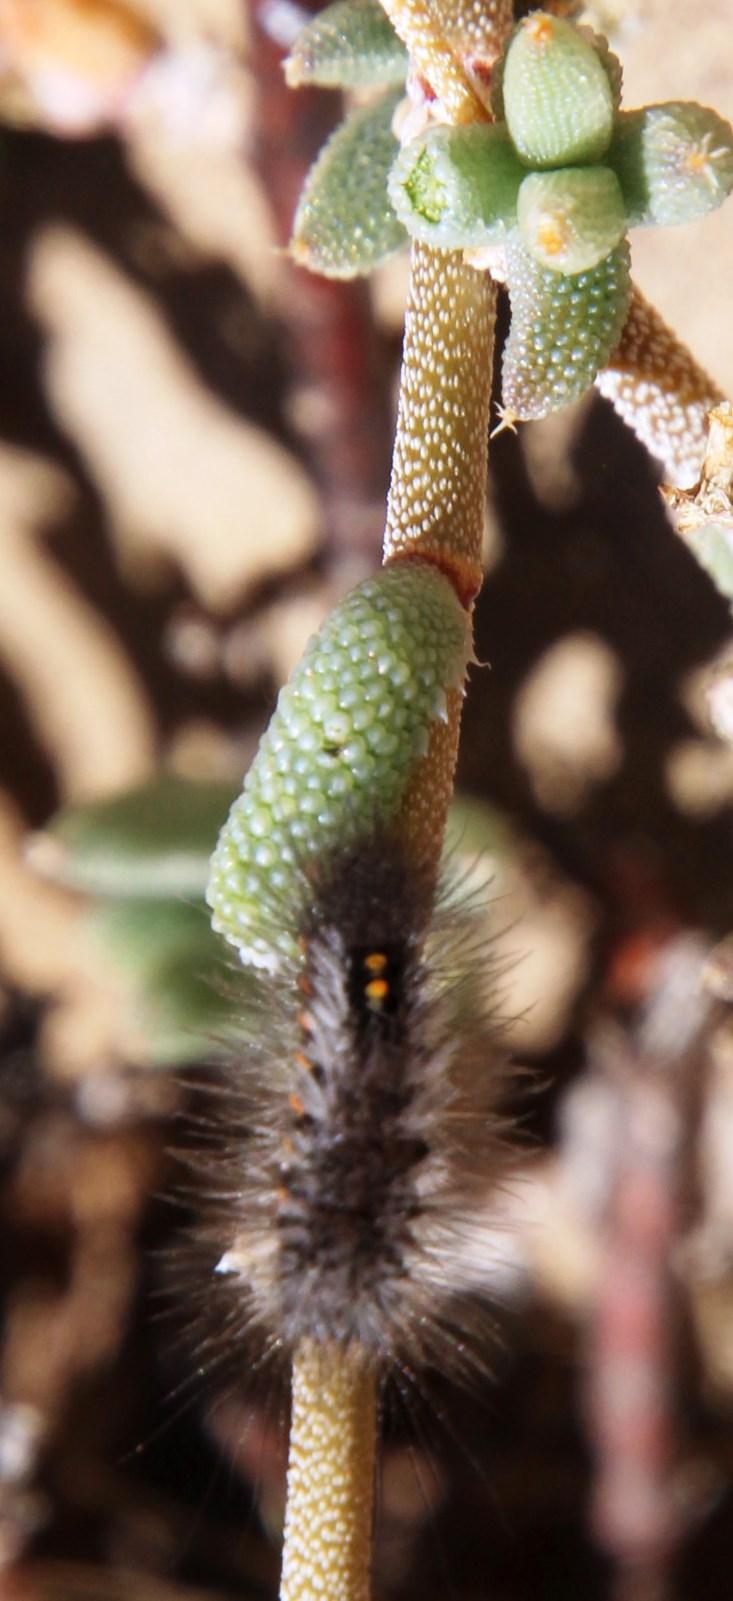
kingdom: Plantae
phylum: Tracheophyta
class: Magnoliopsida
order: Caryophyllales
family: Aizoaceae
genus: Trichodiadema
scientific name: Trichodiadema pomeridianum
